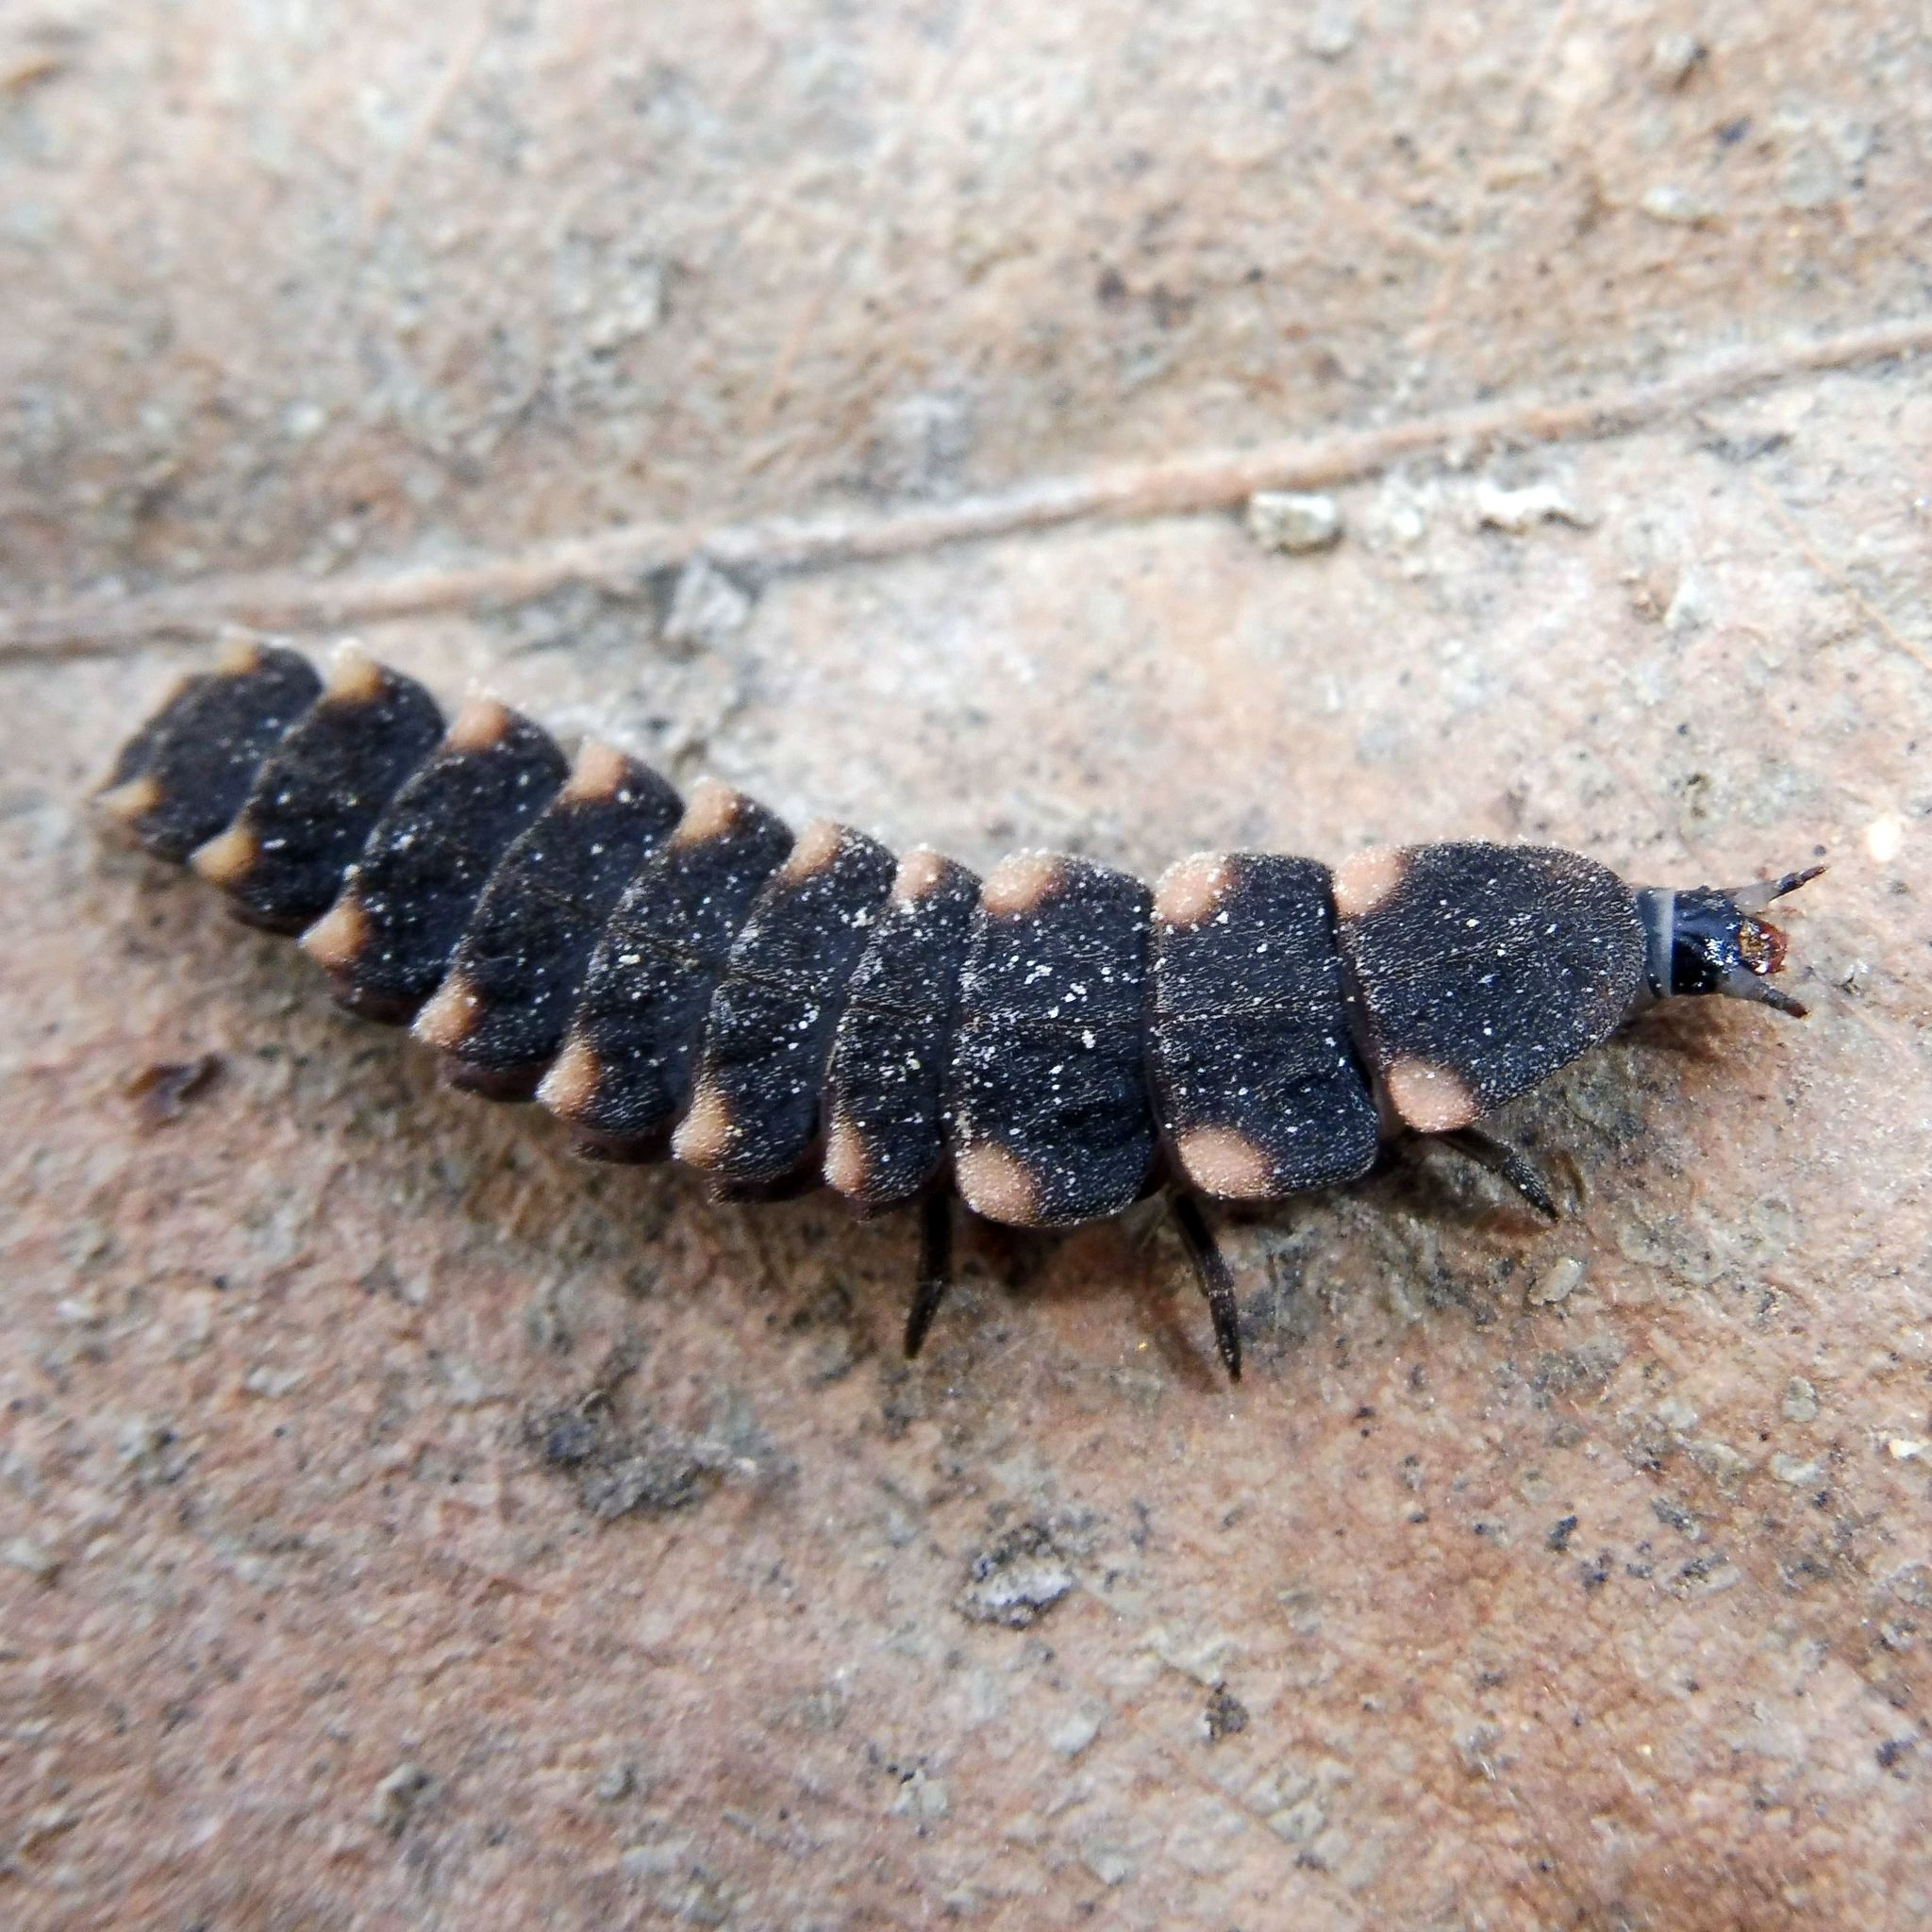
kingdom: Animalia
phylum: Arthropoda
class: Insecta
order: Coleoptera
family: Lampyridae
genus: Lampyris
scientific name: Lampyris noctiluca
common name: Glow-worm
